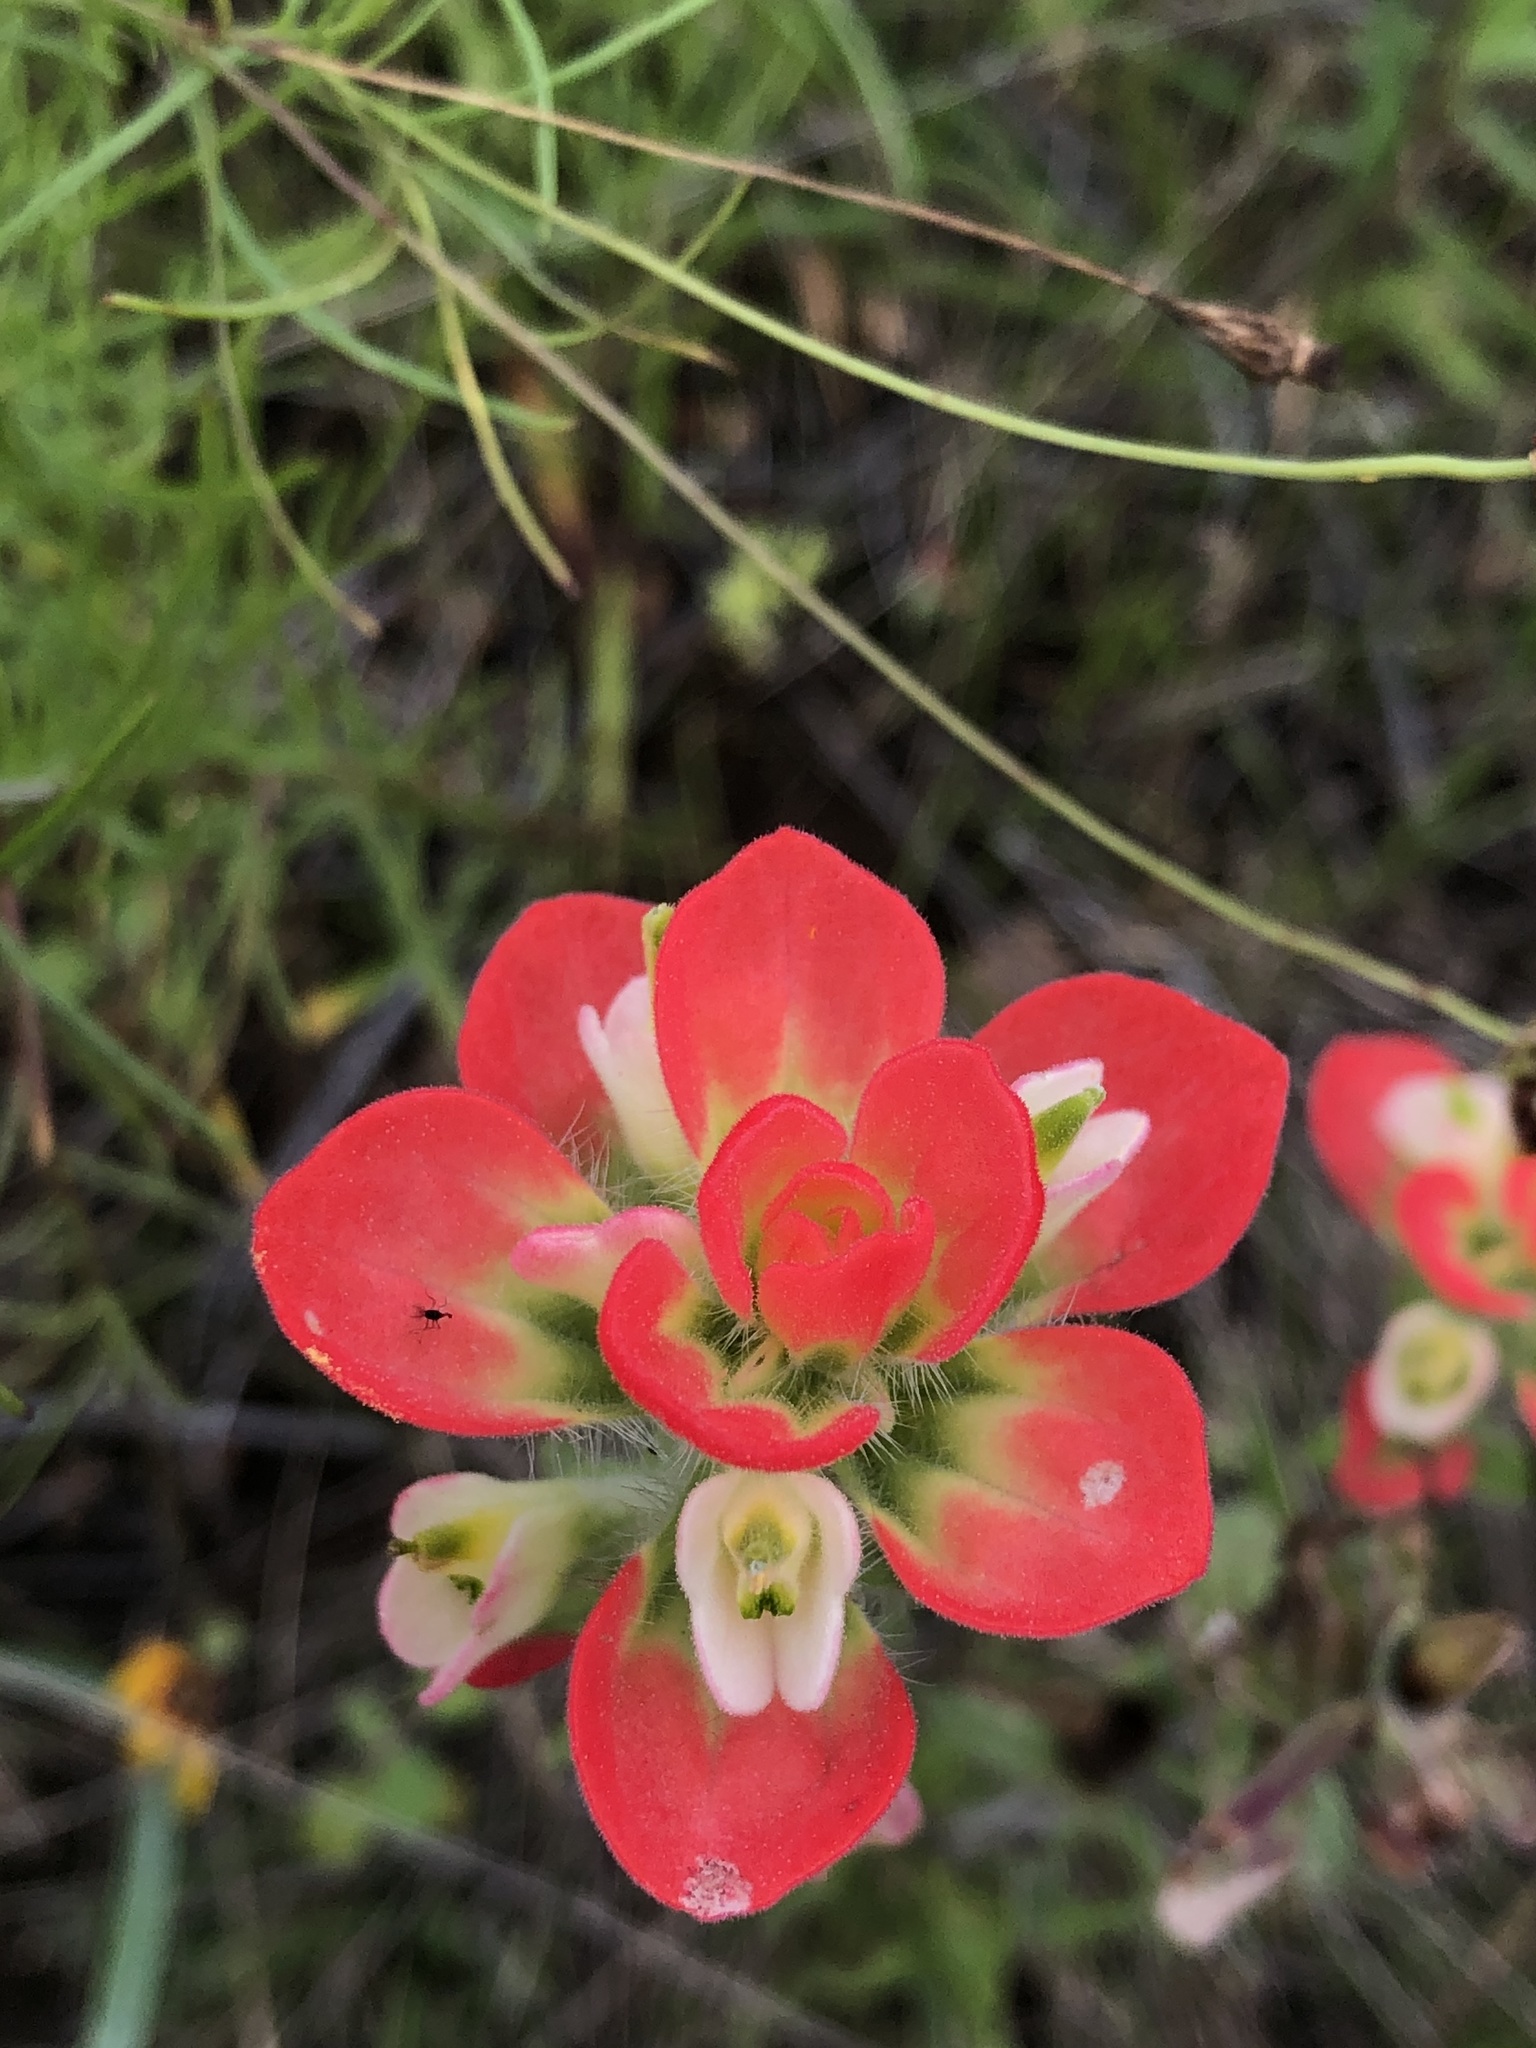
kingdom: Plantae
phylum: Tracheophyta
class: Magnoliopsida
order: Lamiales
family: Orobanchaceae
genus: Castilleja
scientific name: Castilleja indivisa
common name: Texas paintbrush
